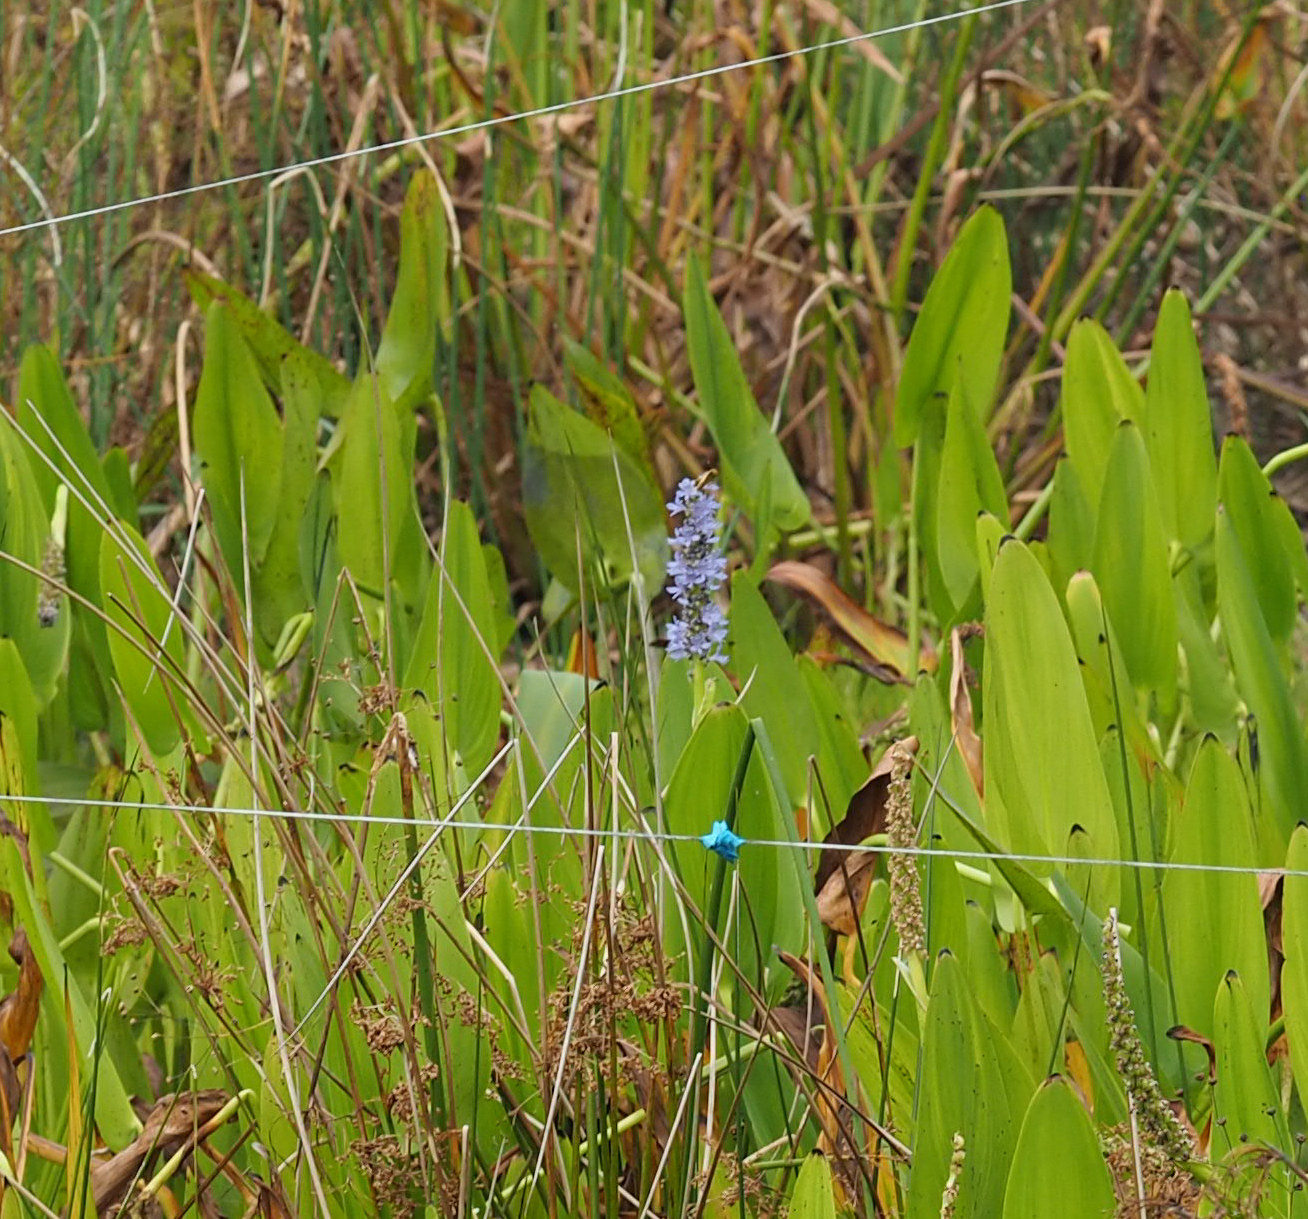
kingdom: Plantae
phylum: Tracheophyta
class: Liliopsida
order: Commelinales
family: Pontederiaceae
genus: Pontederia
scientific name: Pontederia cordata
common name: Pickerelweed
